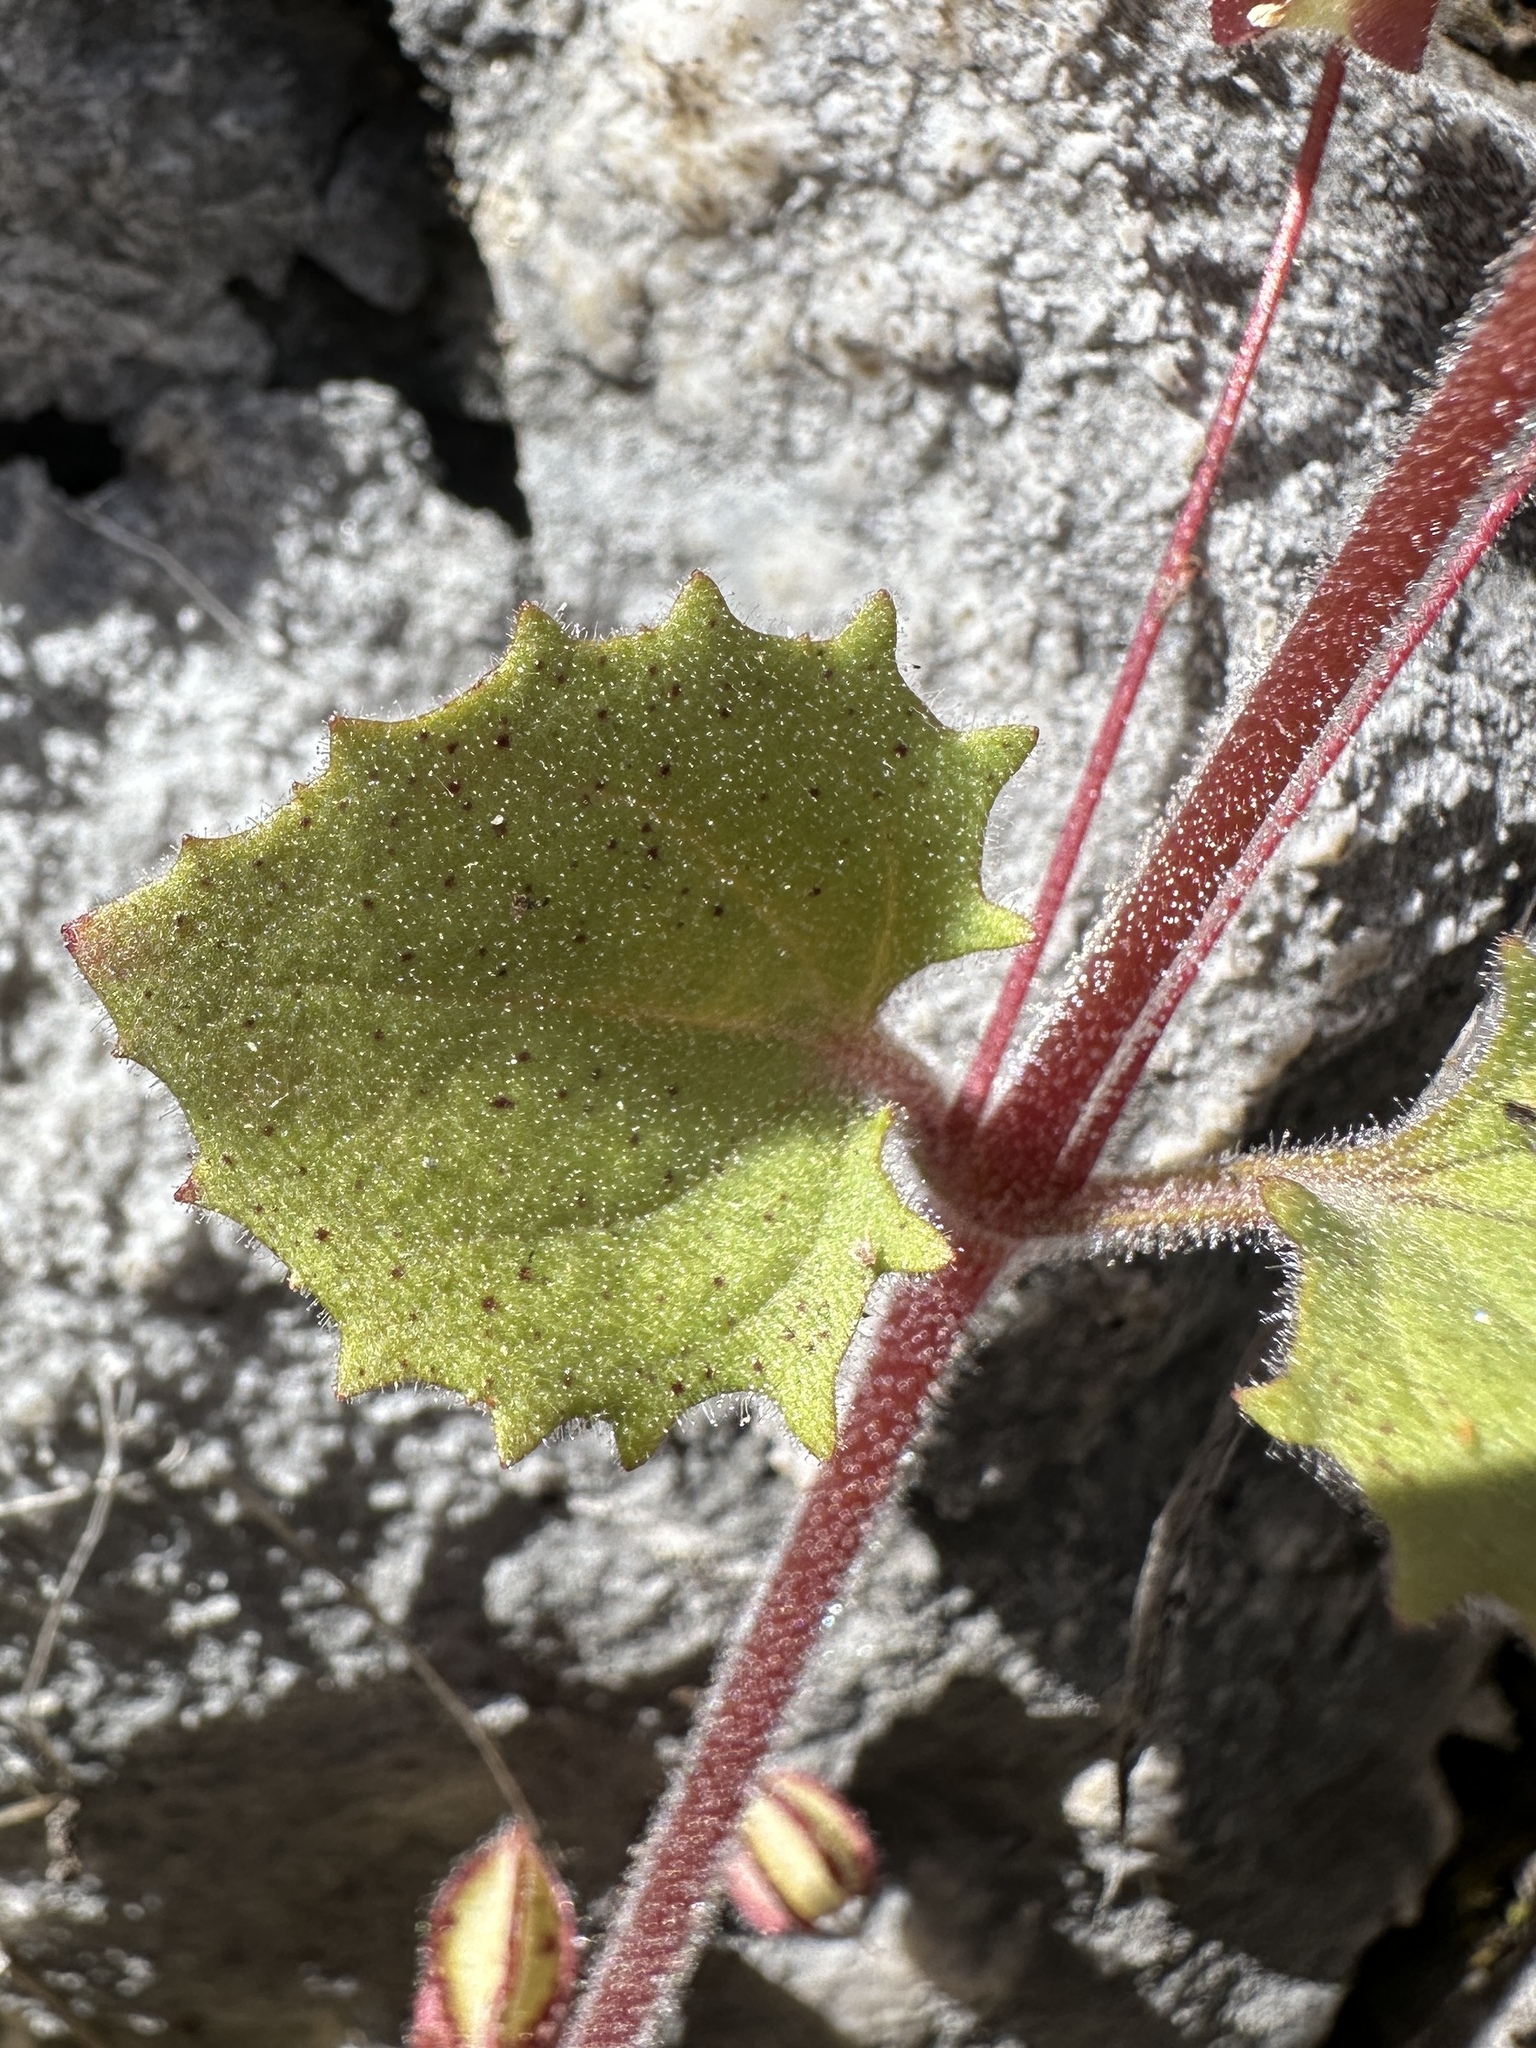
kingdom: Plantae
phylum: Tracheophyta
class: Magnoliopsida
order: Lamiales
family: Phrymaceae
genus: Erythranthe
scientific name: Erythranthe marmorata
